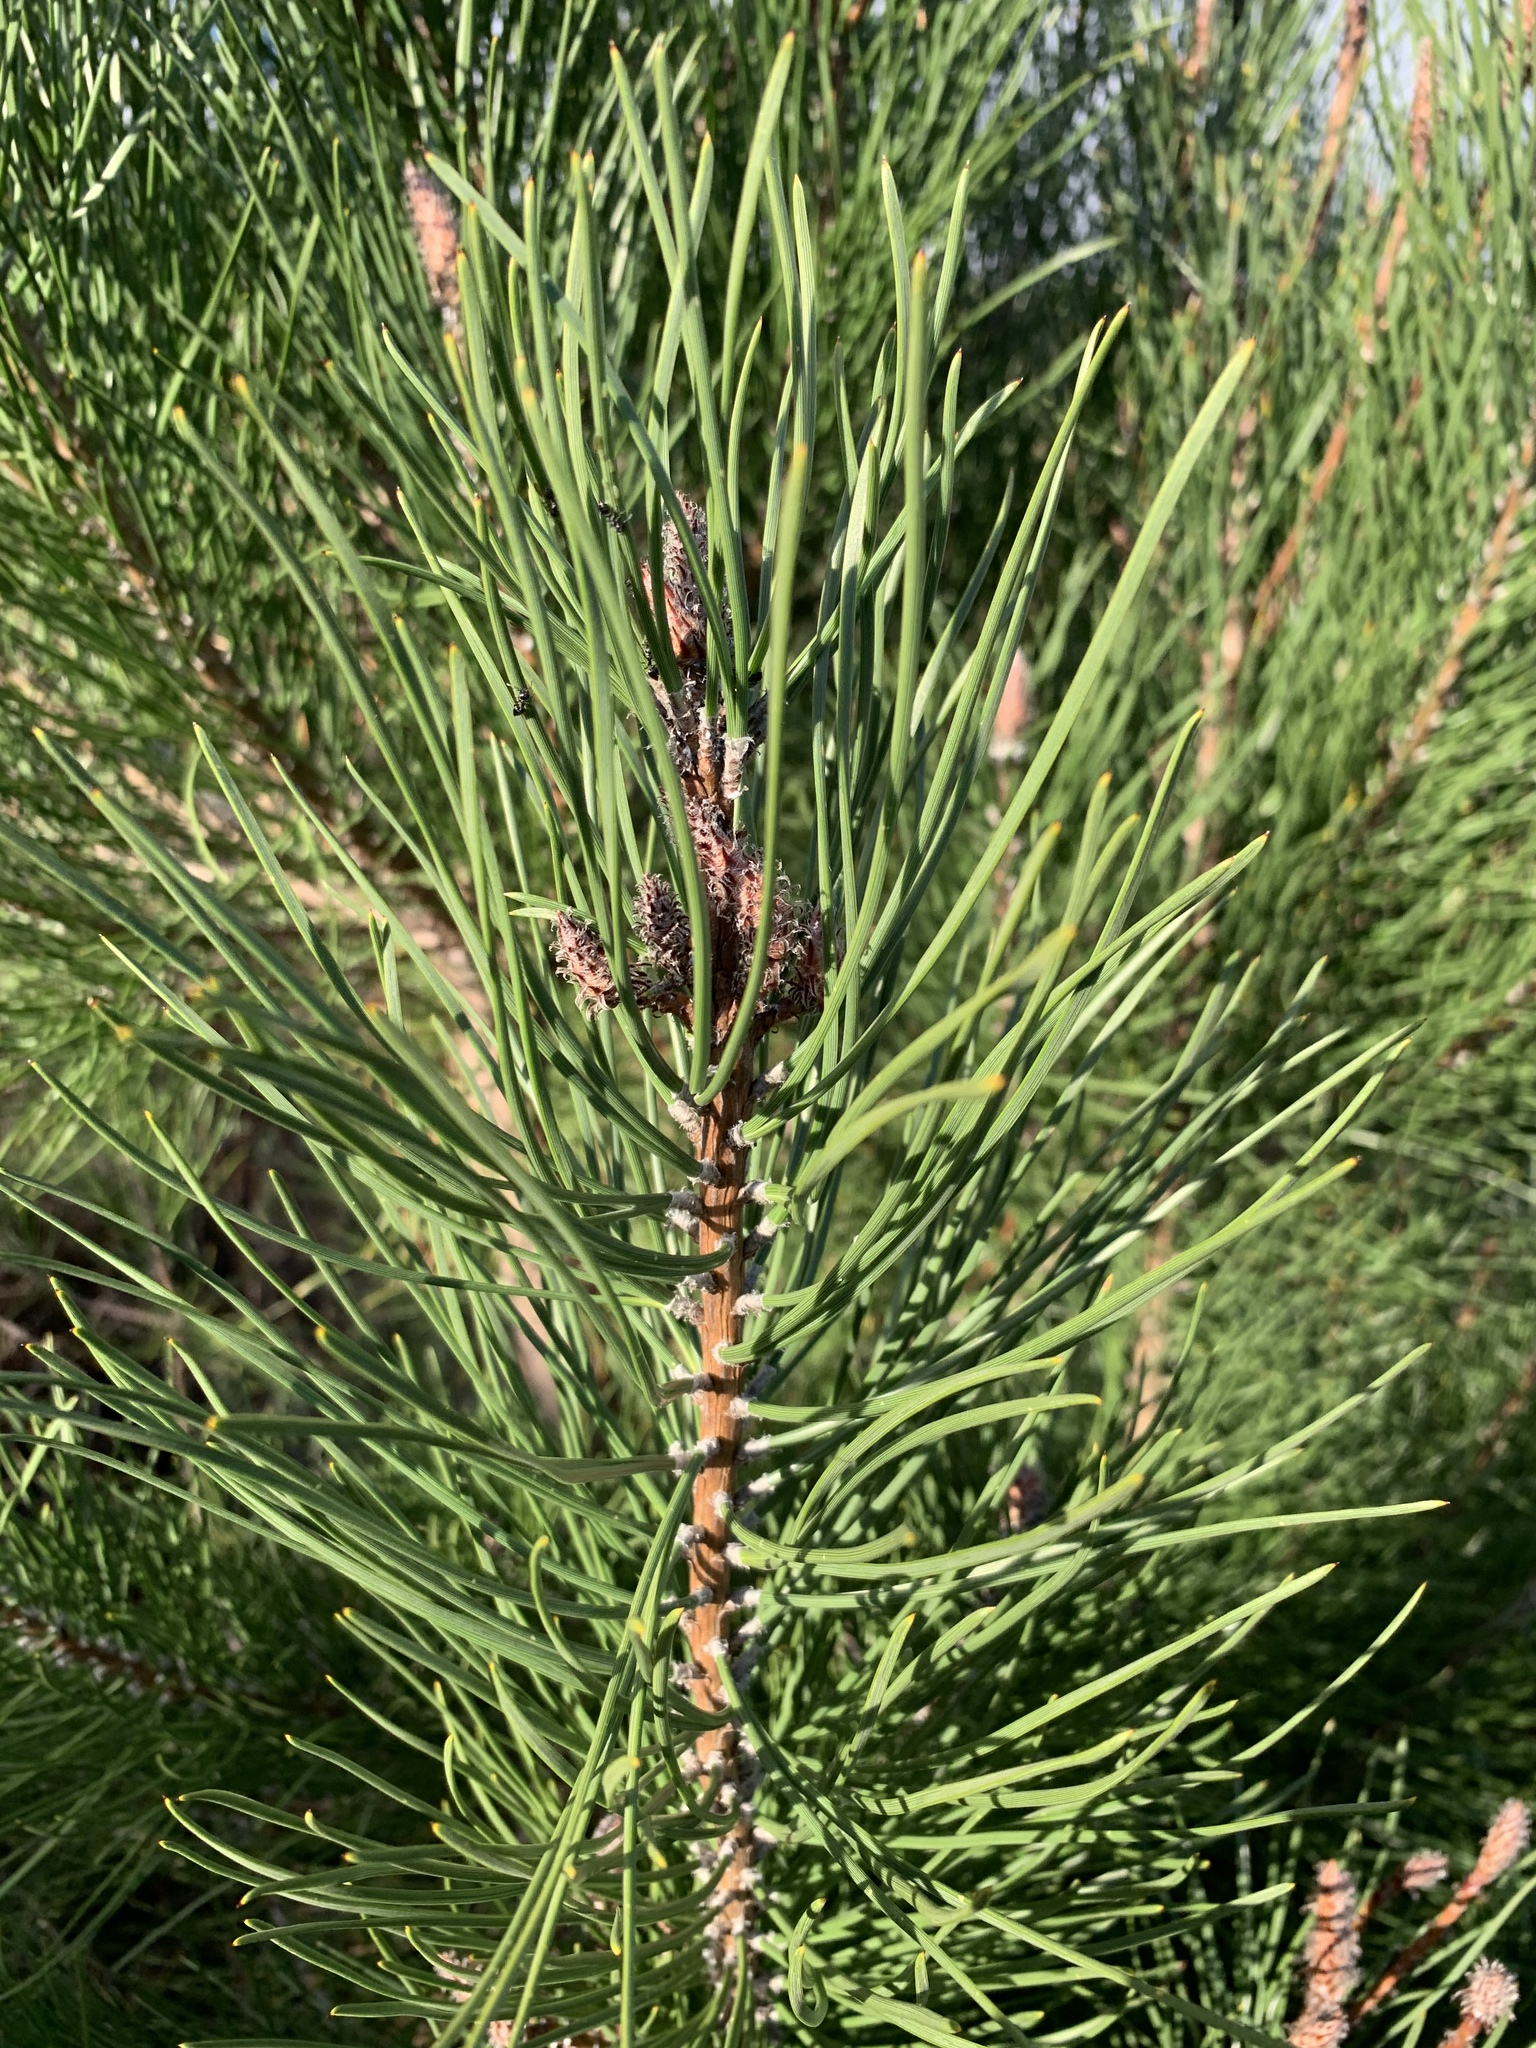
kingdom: Plantae
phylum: Tracheophyta
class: Pinopsida
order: Pinales
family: Pinaceae
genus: Pinus
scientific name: Pinus pinaster
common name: Maritime pine
